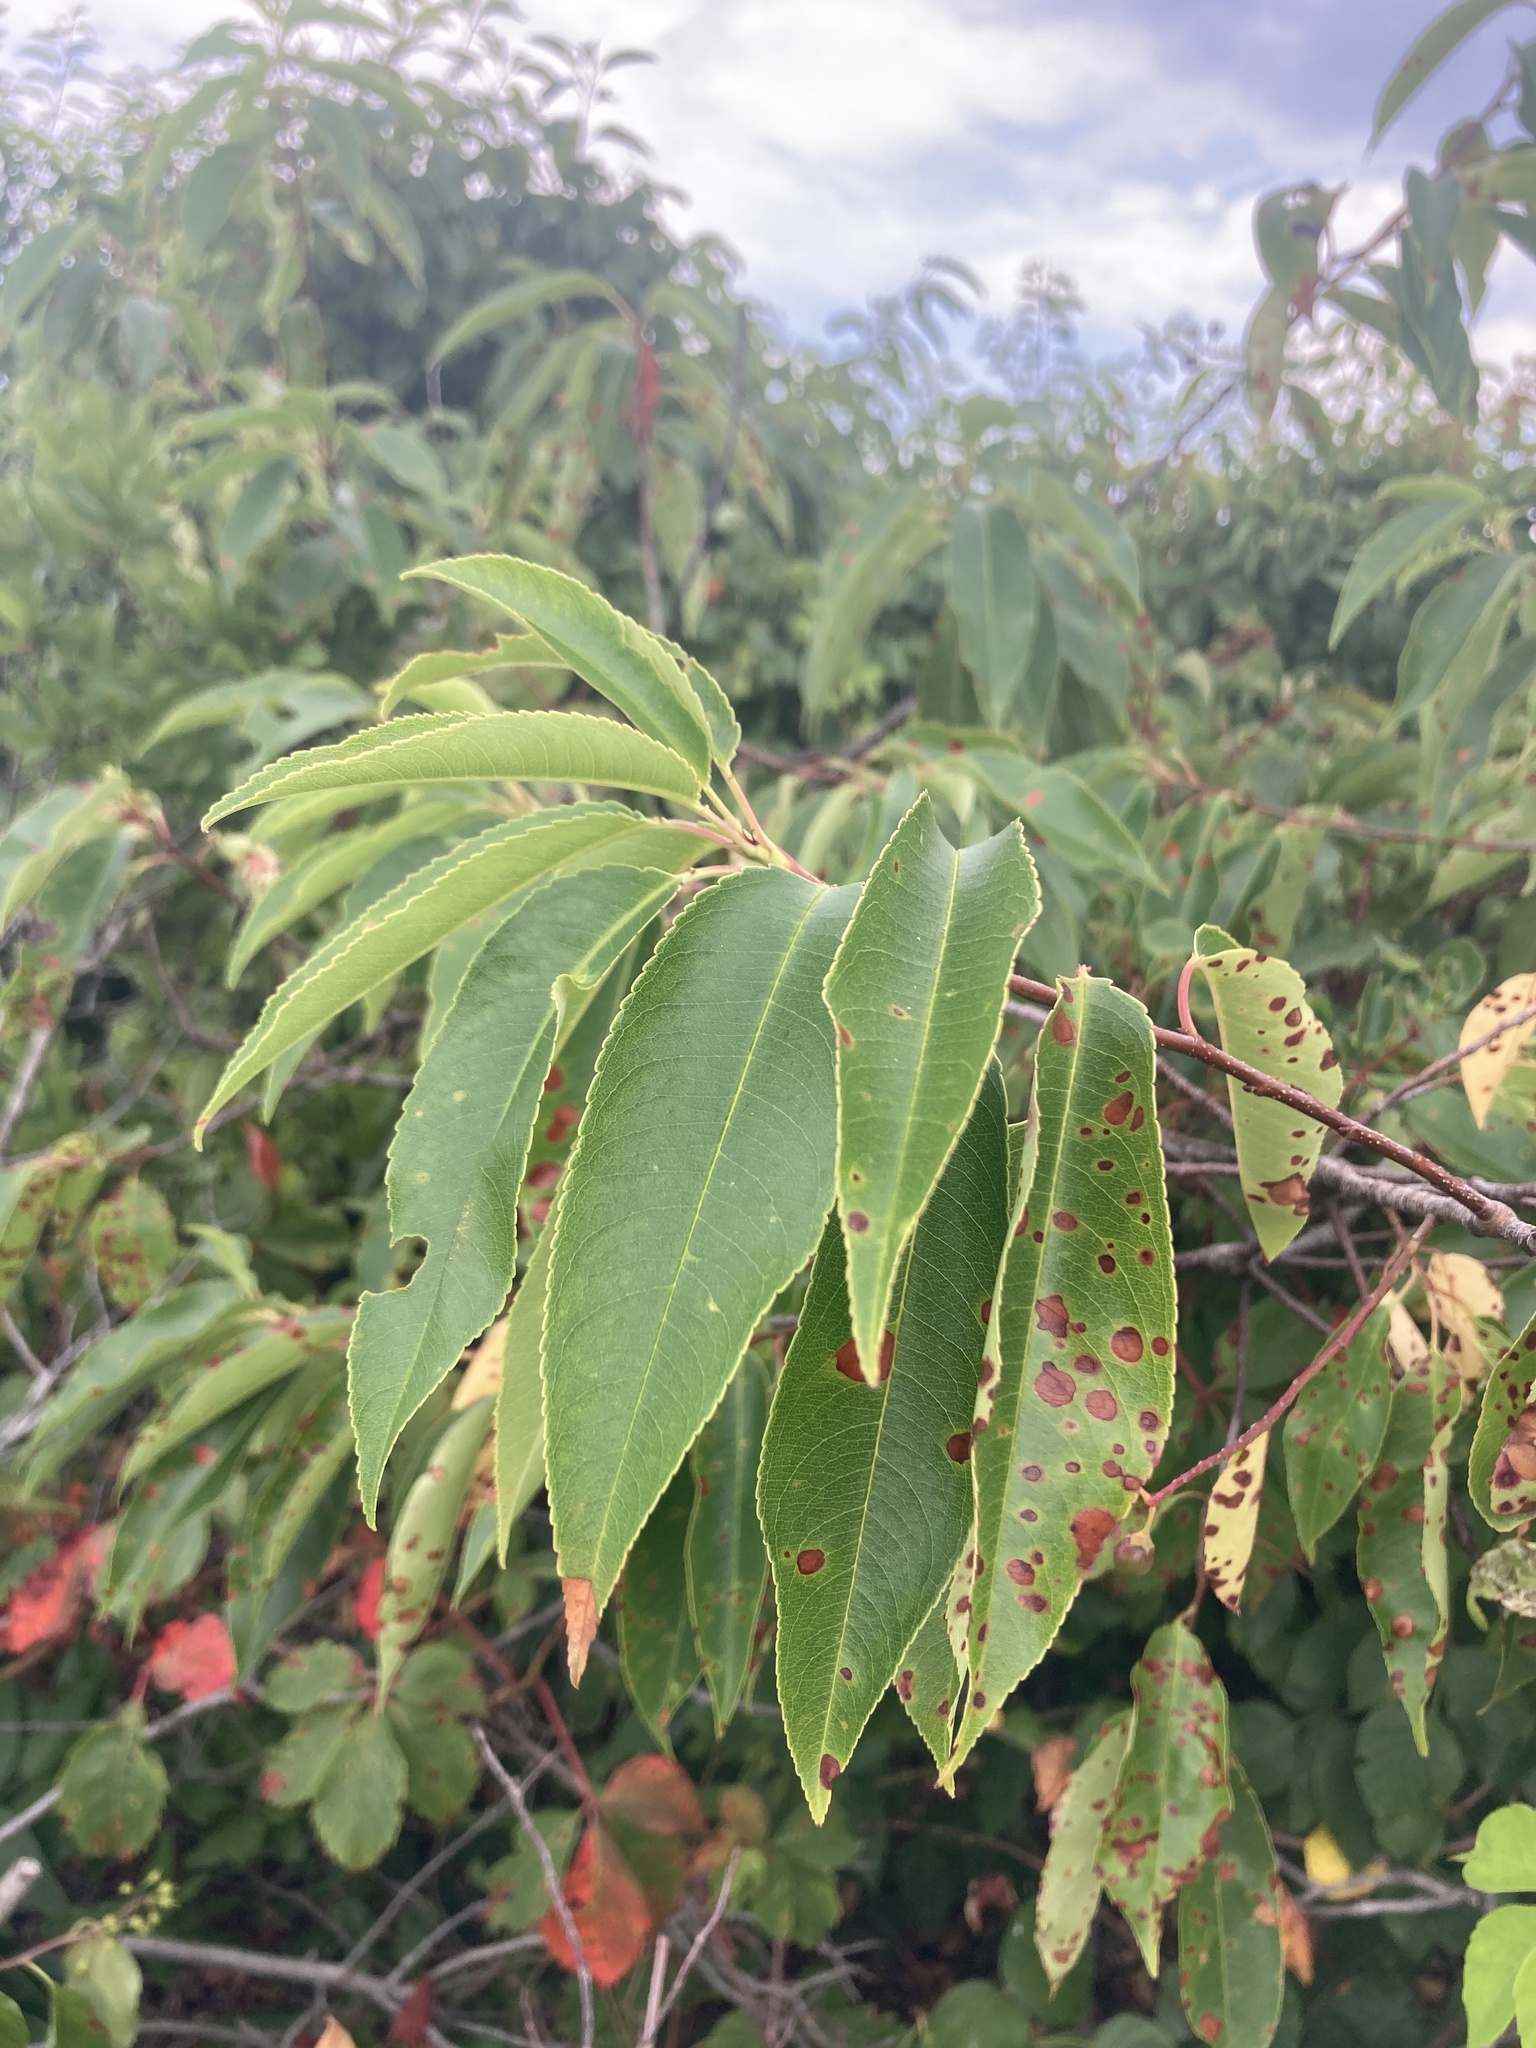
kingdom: Plantae
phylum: Tracheophyta
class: Magnoliopsida
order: Rosales
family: Rosaceae
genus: Prunus
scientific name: Prunus serotina
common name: Black cherry
